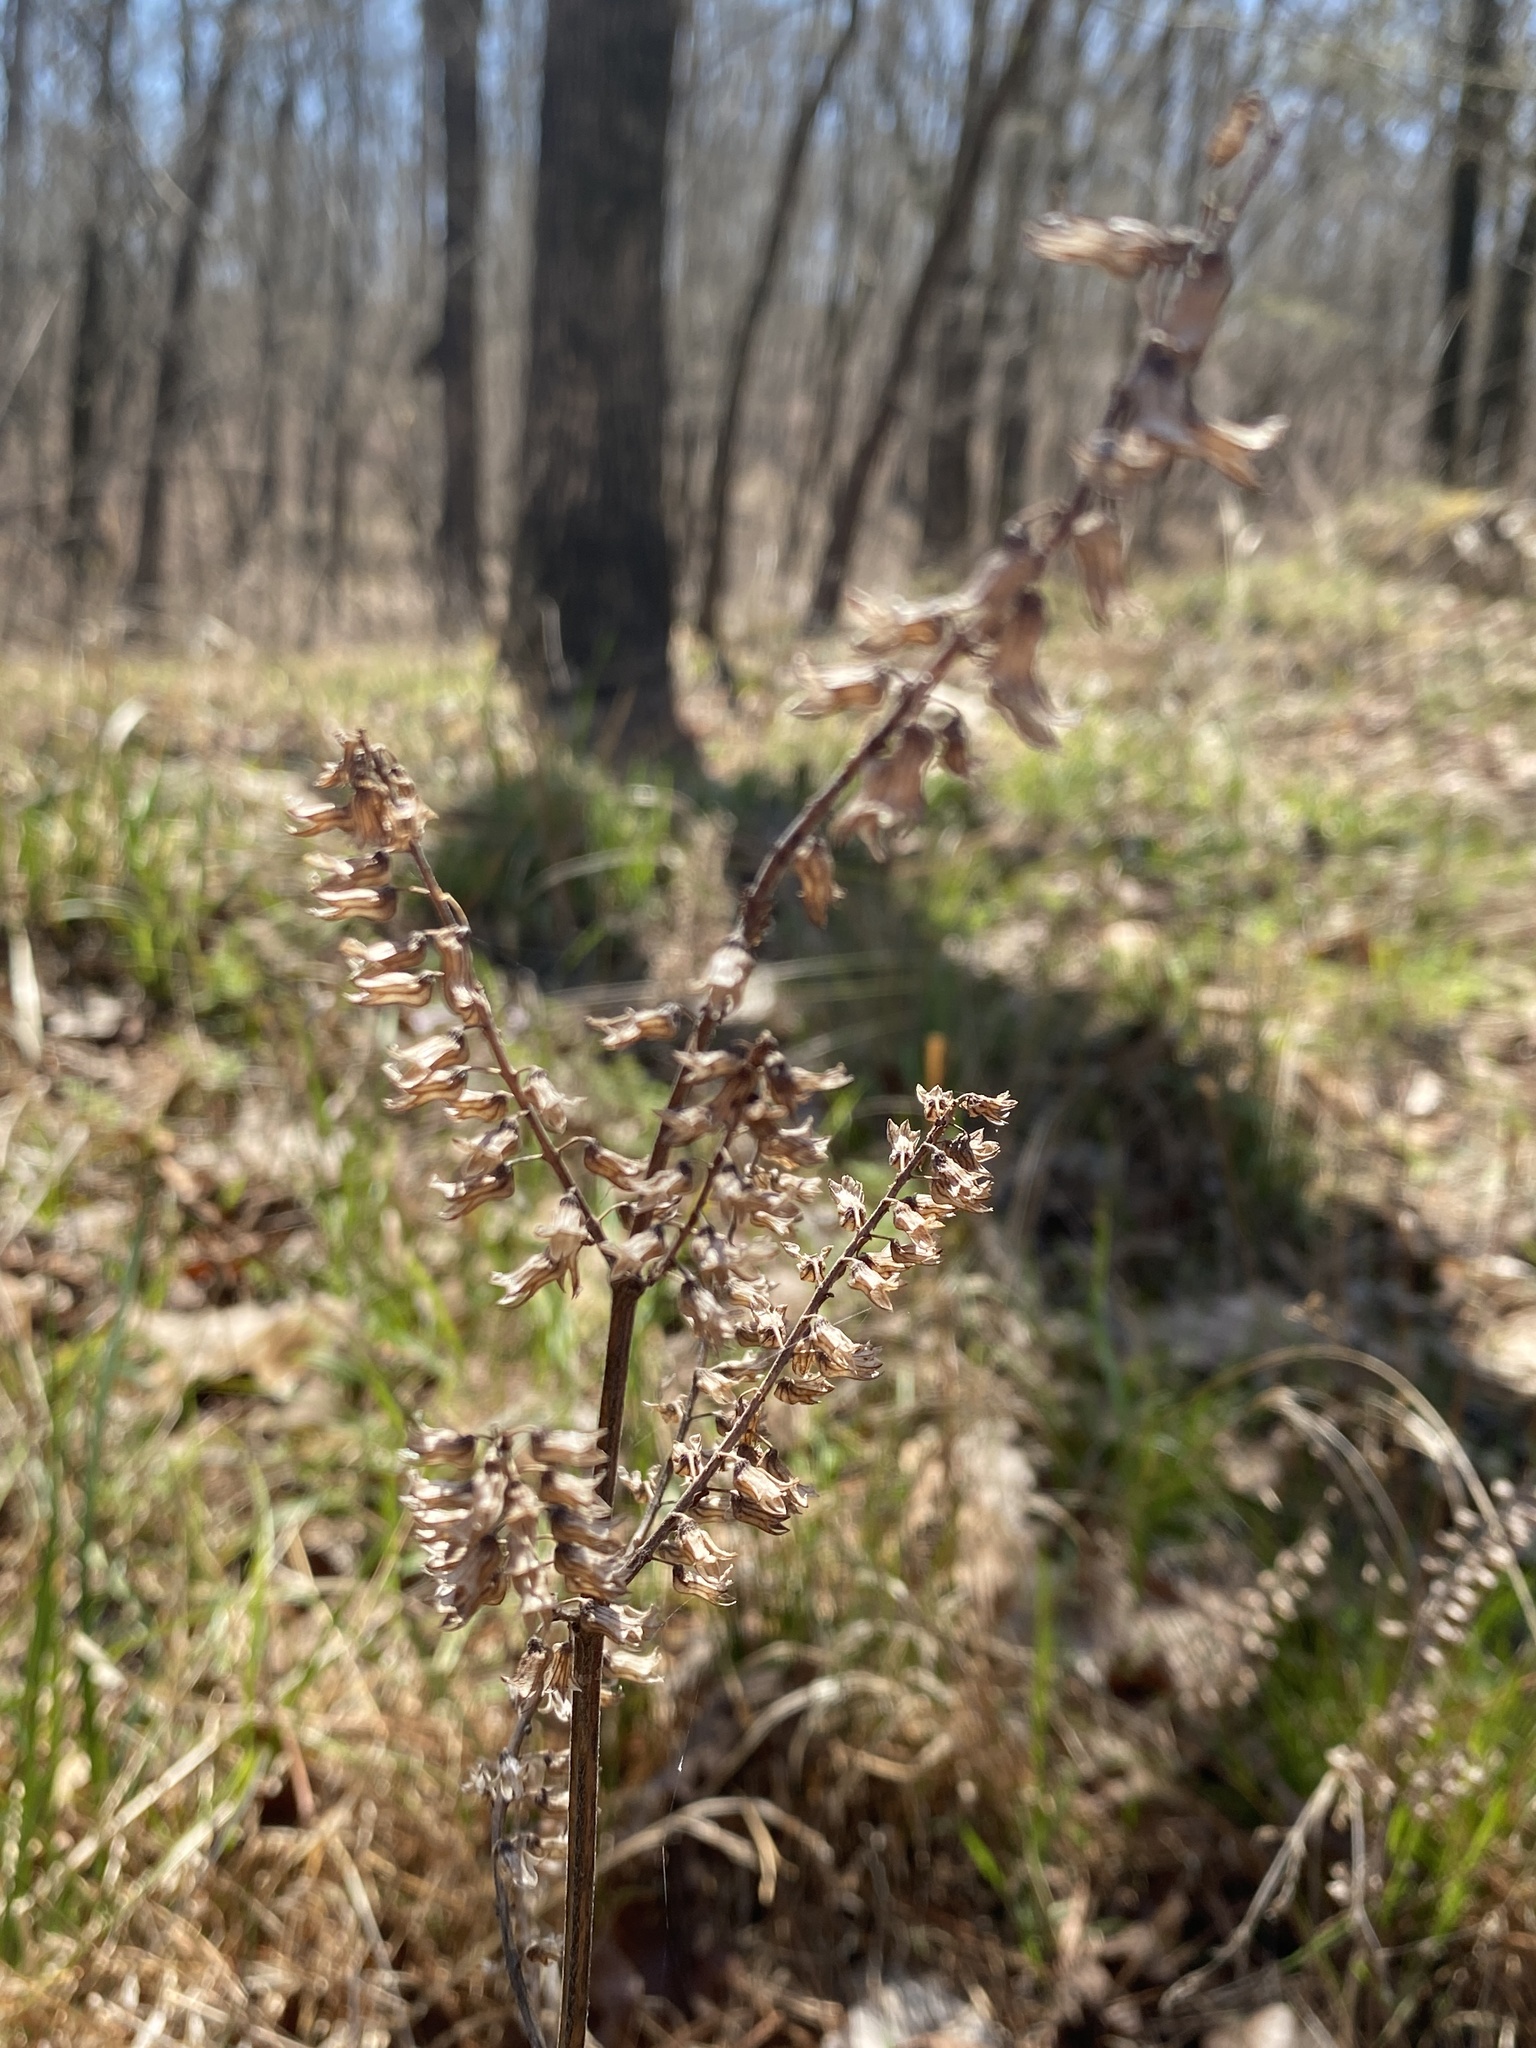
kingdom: Plantae
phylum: Tracheophyta
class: Magnoliopsida
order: Lamiales
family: Lamiaceae
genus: Perilla
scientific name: Perilla frutescens
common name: Perilla
